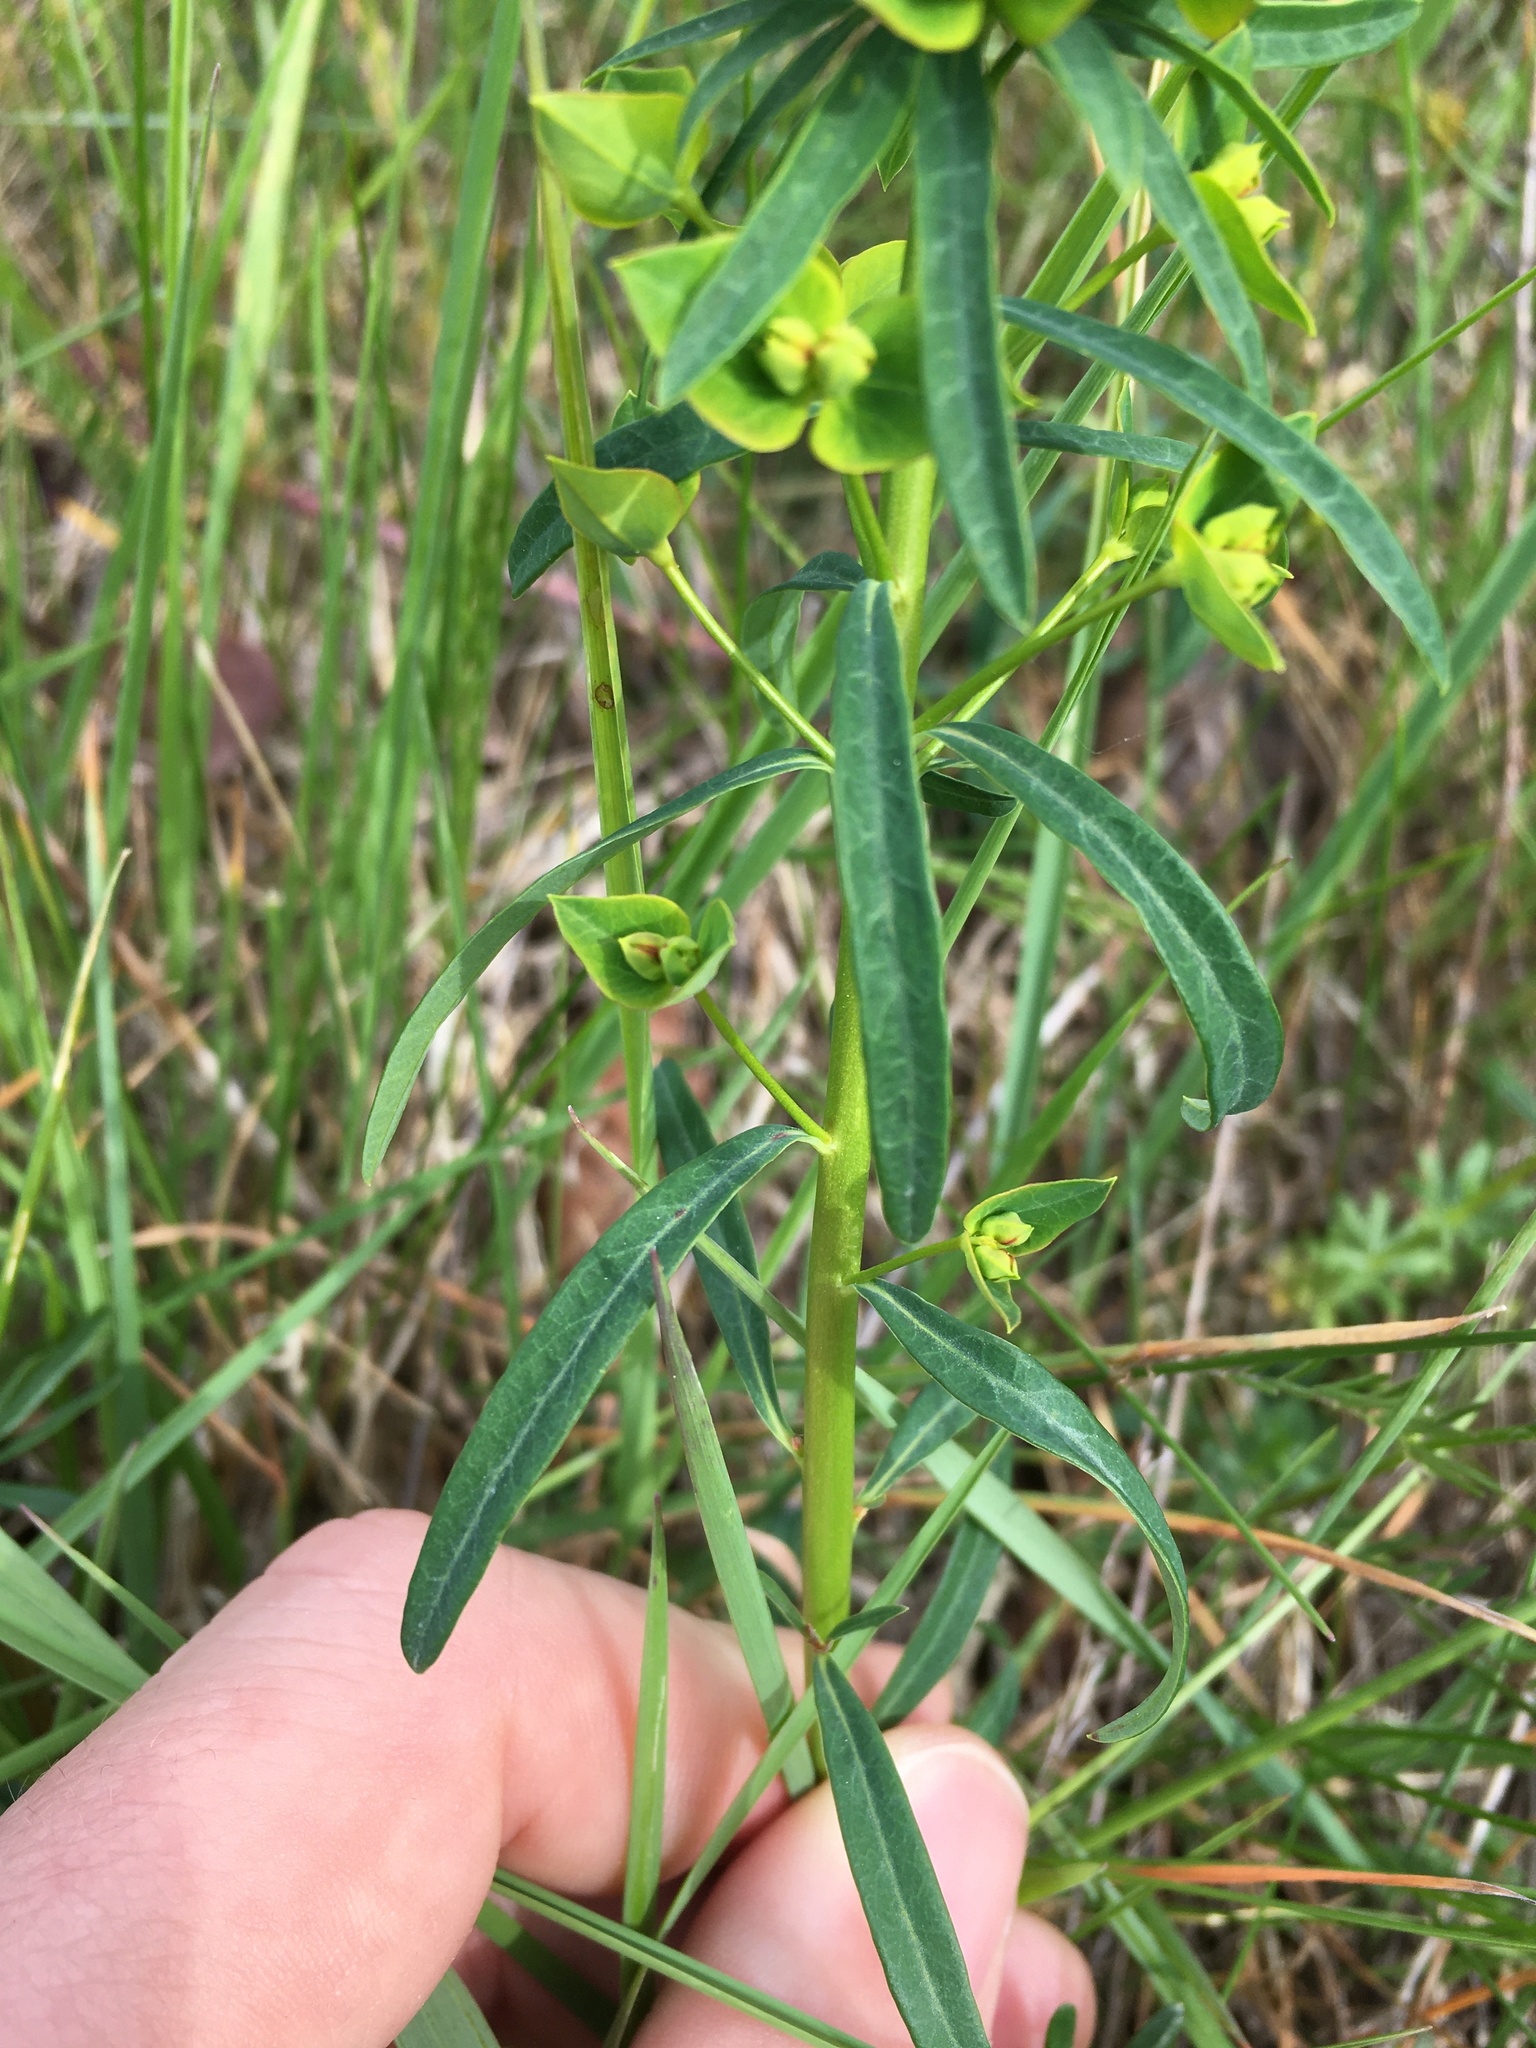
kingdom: Plantae
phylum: Tracheophyta
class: Magnoliopsida
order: Malpighiales
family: Euphorbiaceae
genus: Euphorbia
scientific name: Euphorbia esula
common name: Leafy spurge
